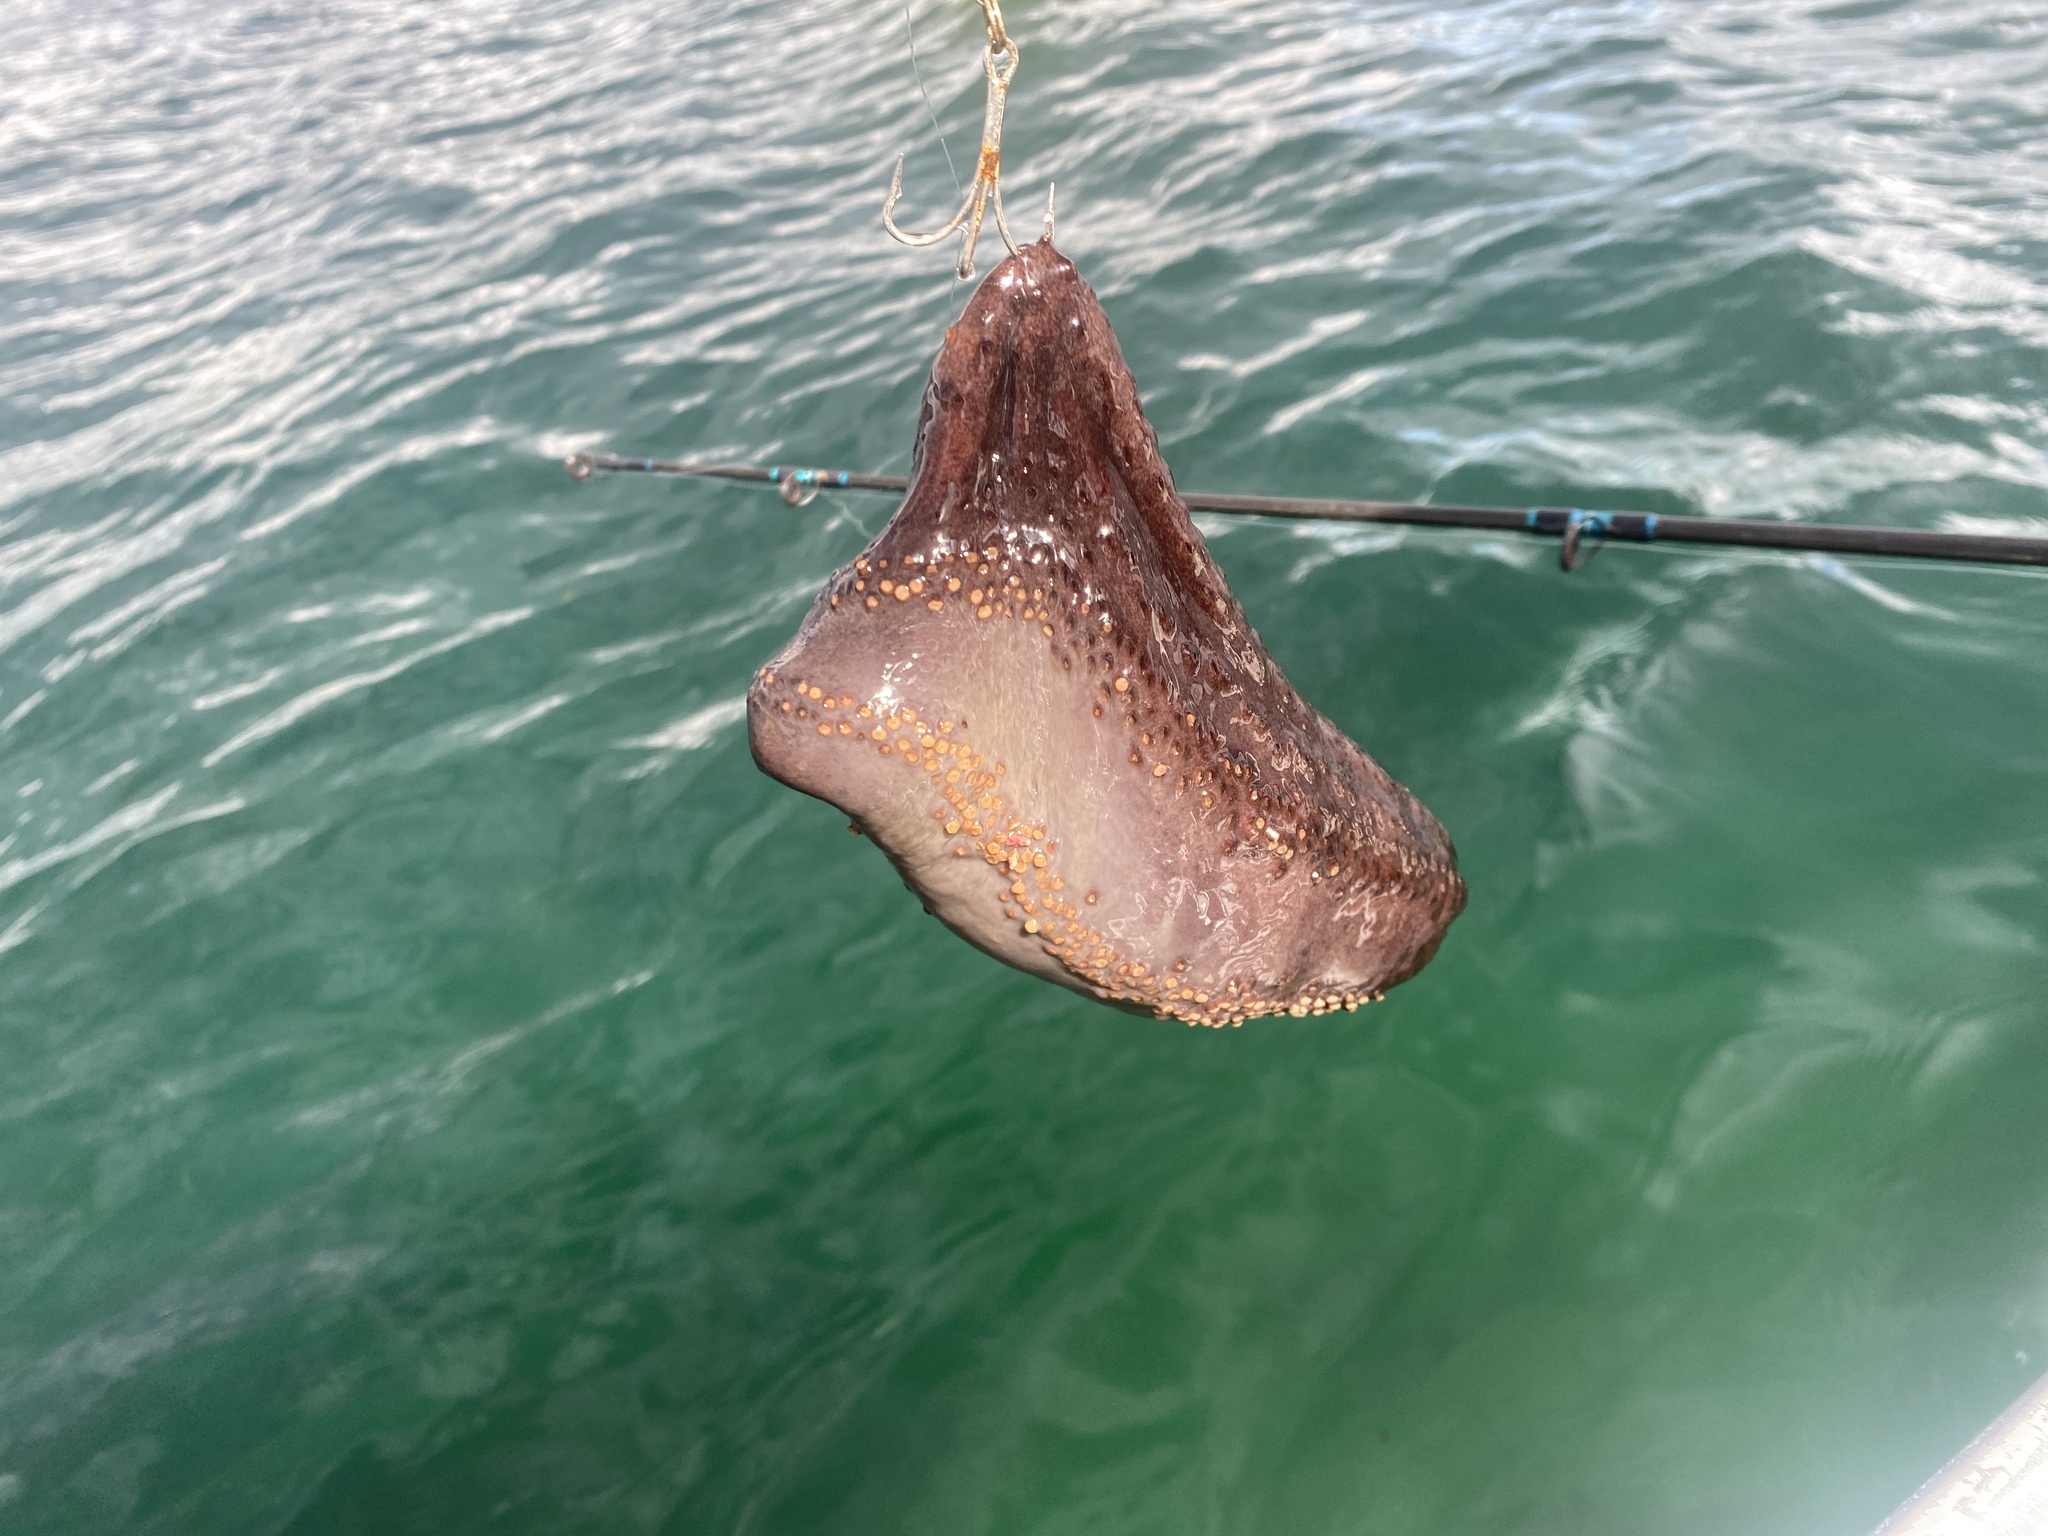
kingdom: Animalia
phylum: Echinodermata
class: Holothuroidea
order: Dendrochirotida
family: Cucumariidae
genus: Cucumaria
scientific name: Cucumaria frondosa
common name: Orange-footed sea cucumber
